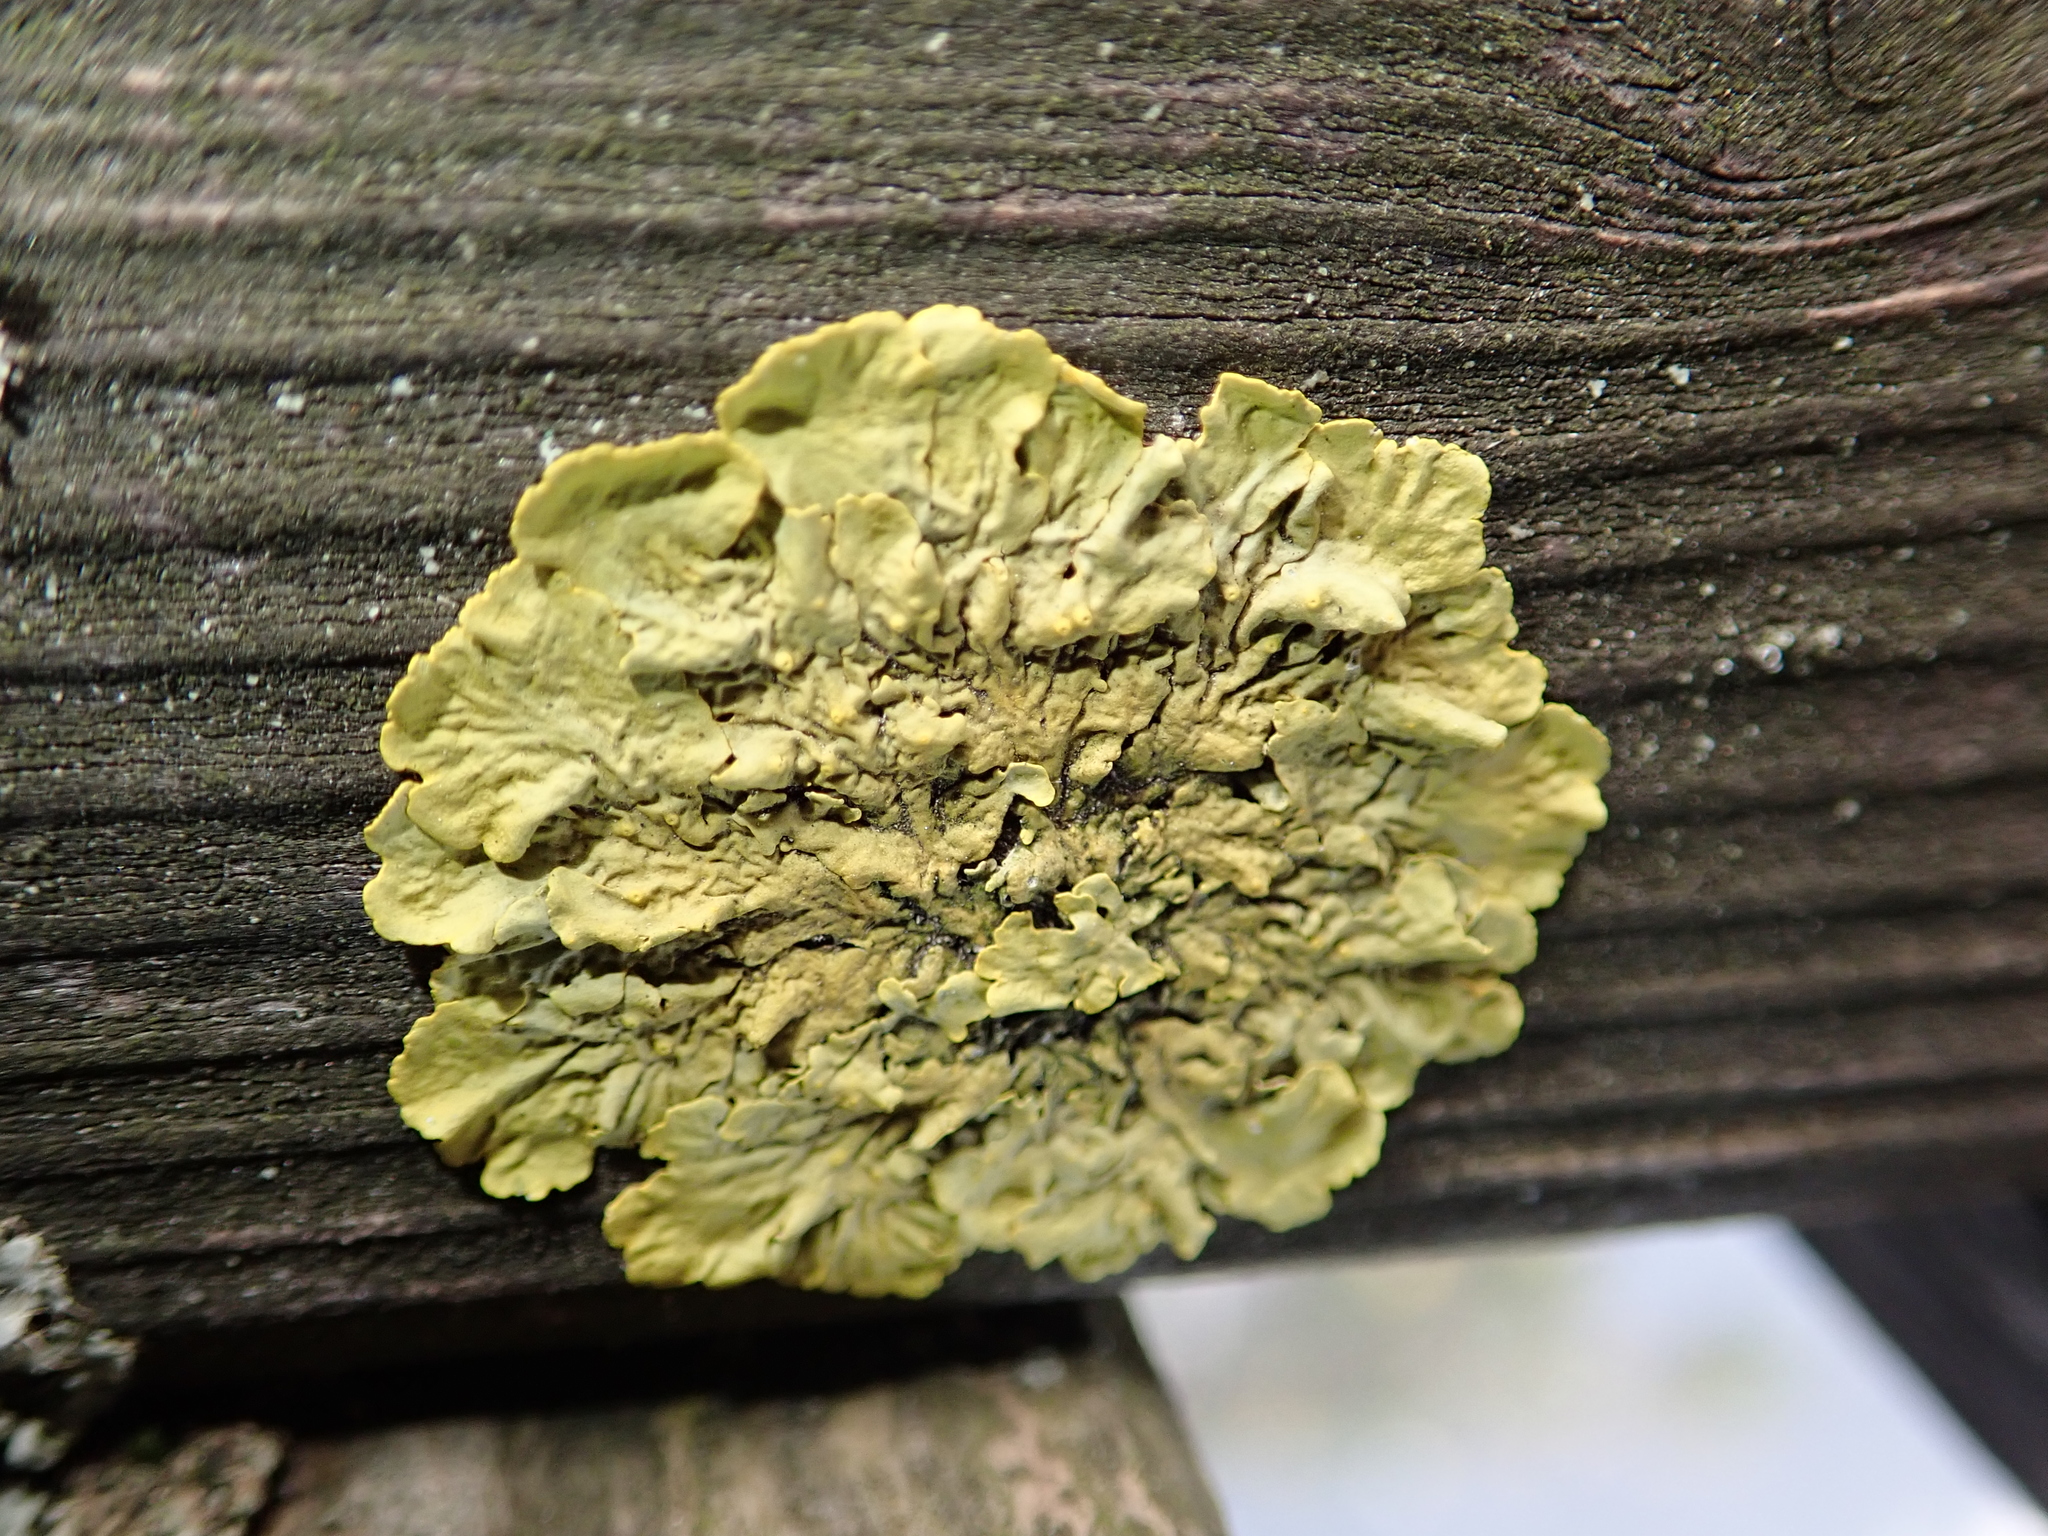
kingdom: Fungi
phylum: Ascomycota
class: Lecanoromycetes
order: Teloschistales
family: Teloschistaceae
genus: Xanthoria
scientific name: Xanthoria parietina
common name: Common orange lichen
